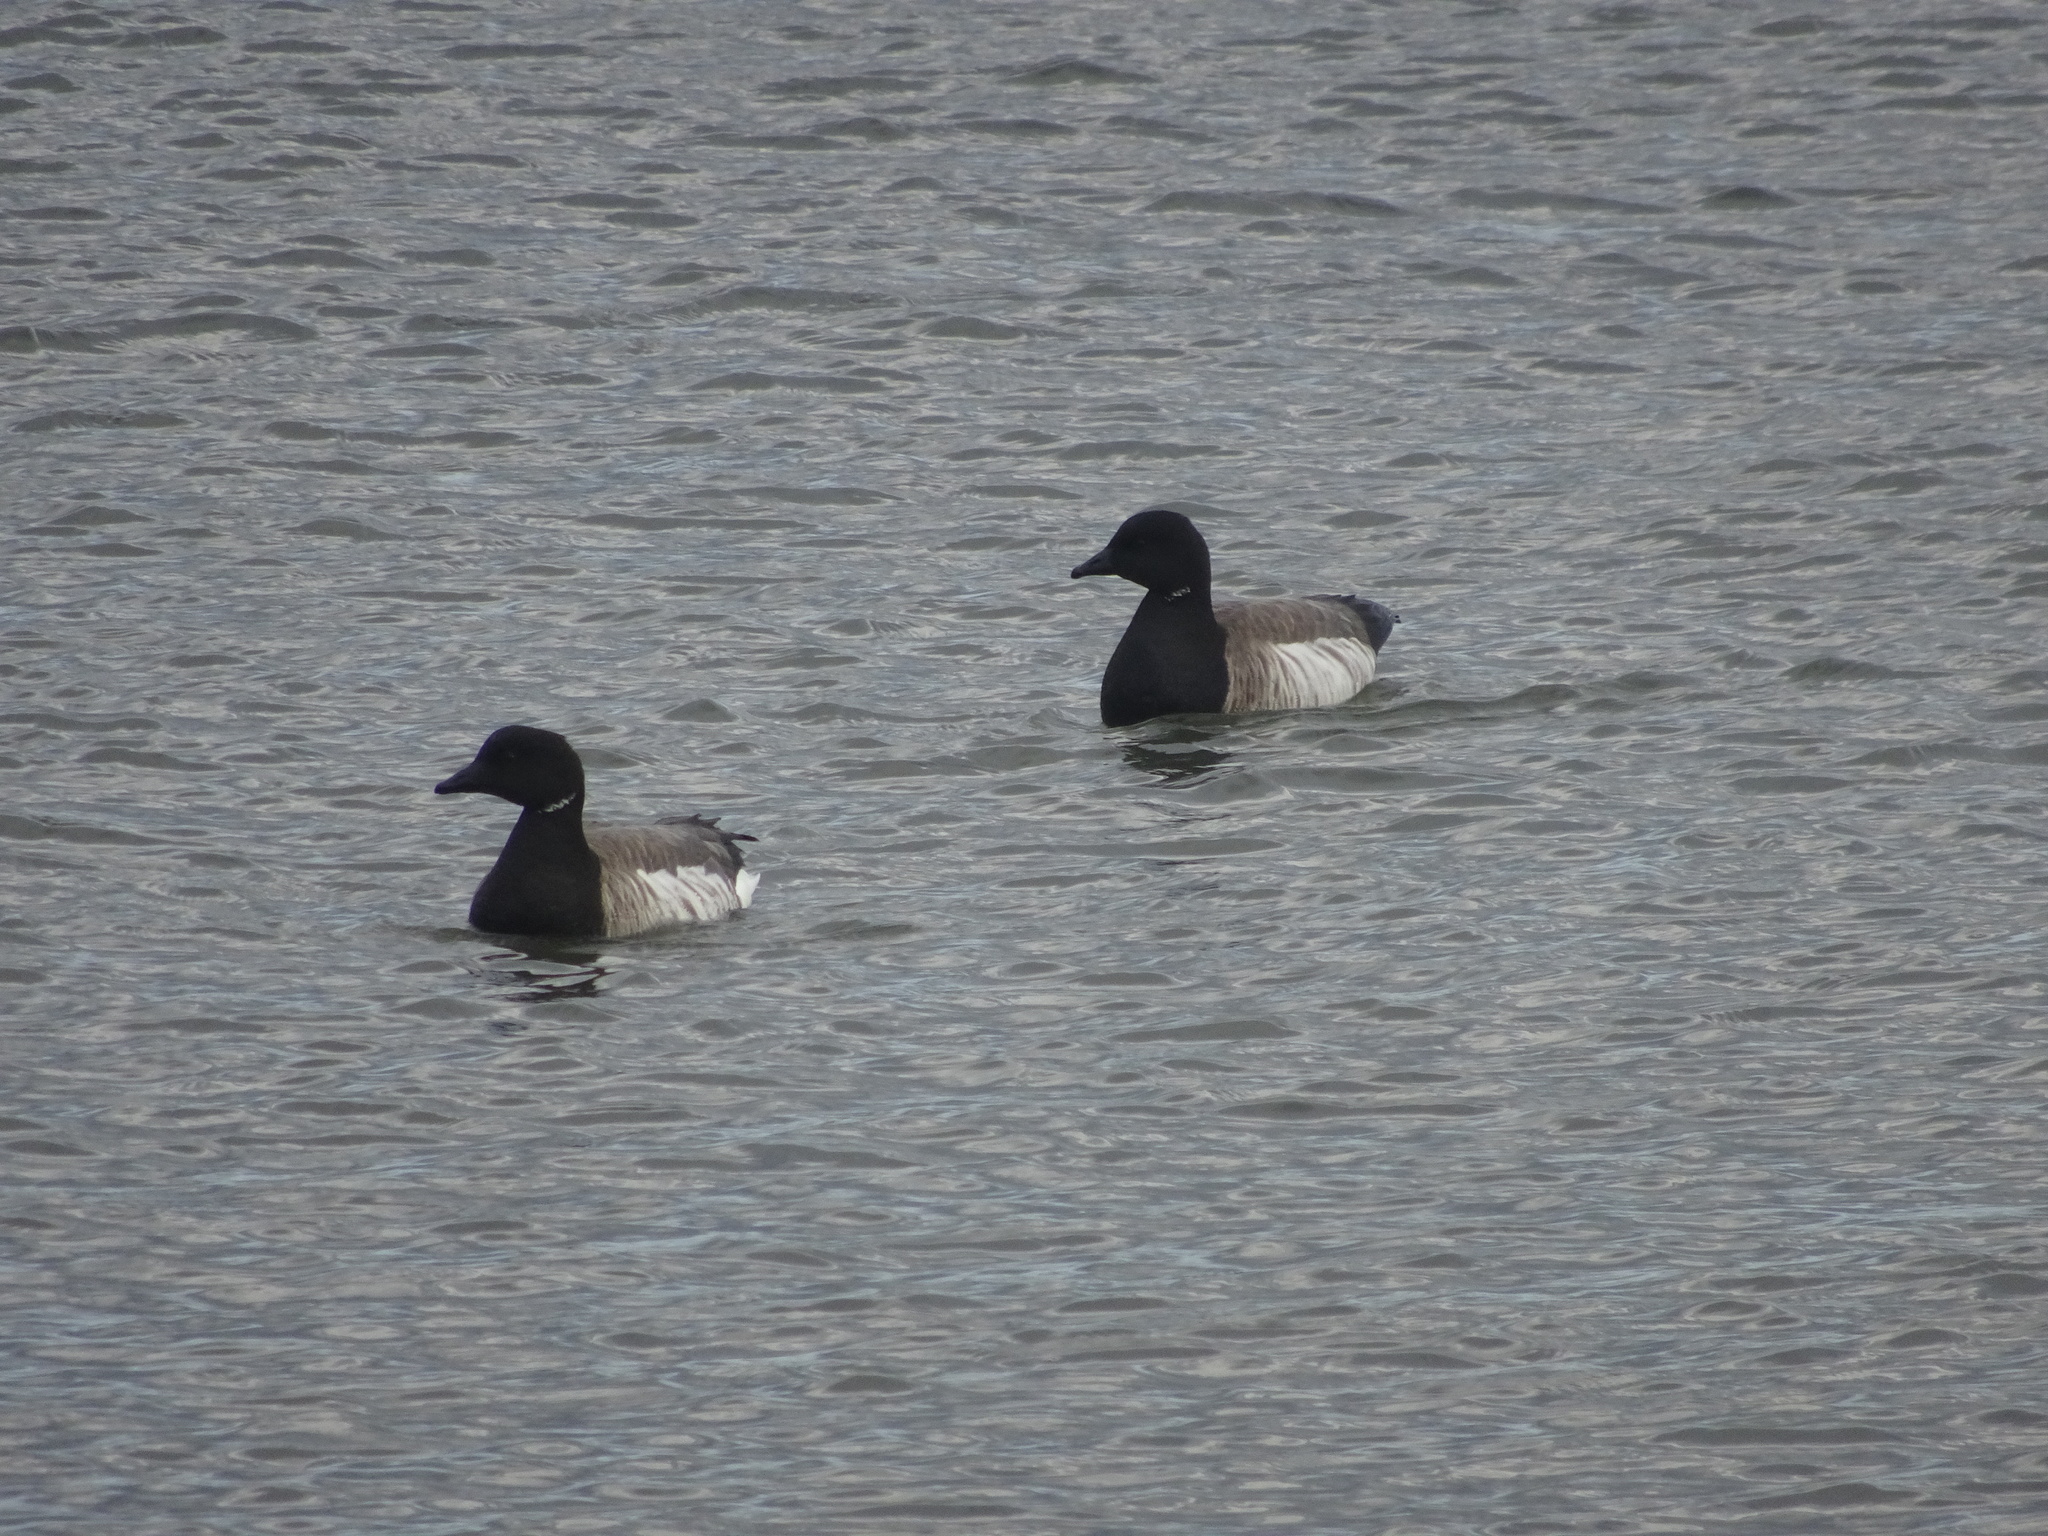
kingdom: Animalia
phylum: Chordata
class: Aves
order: Anseriformes
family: Anatidae
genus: Branta
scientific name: Branta bernicla
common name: Brant goose
